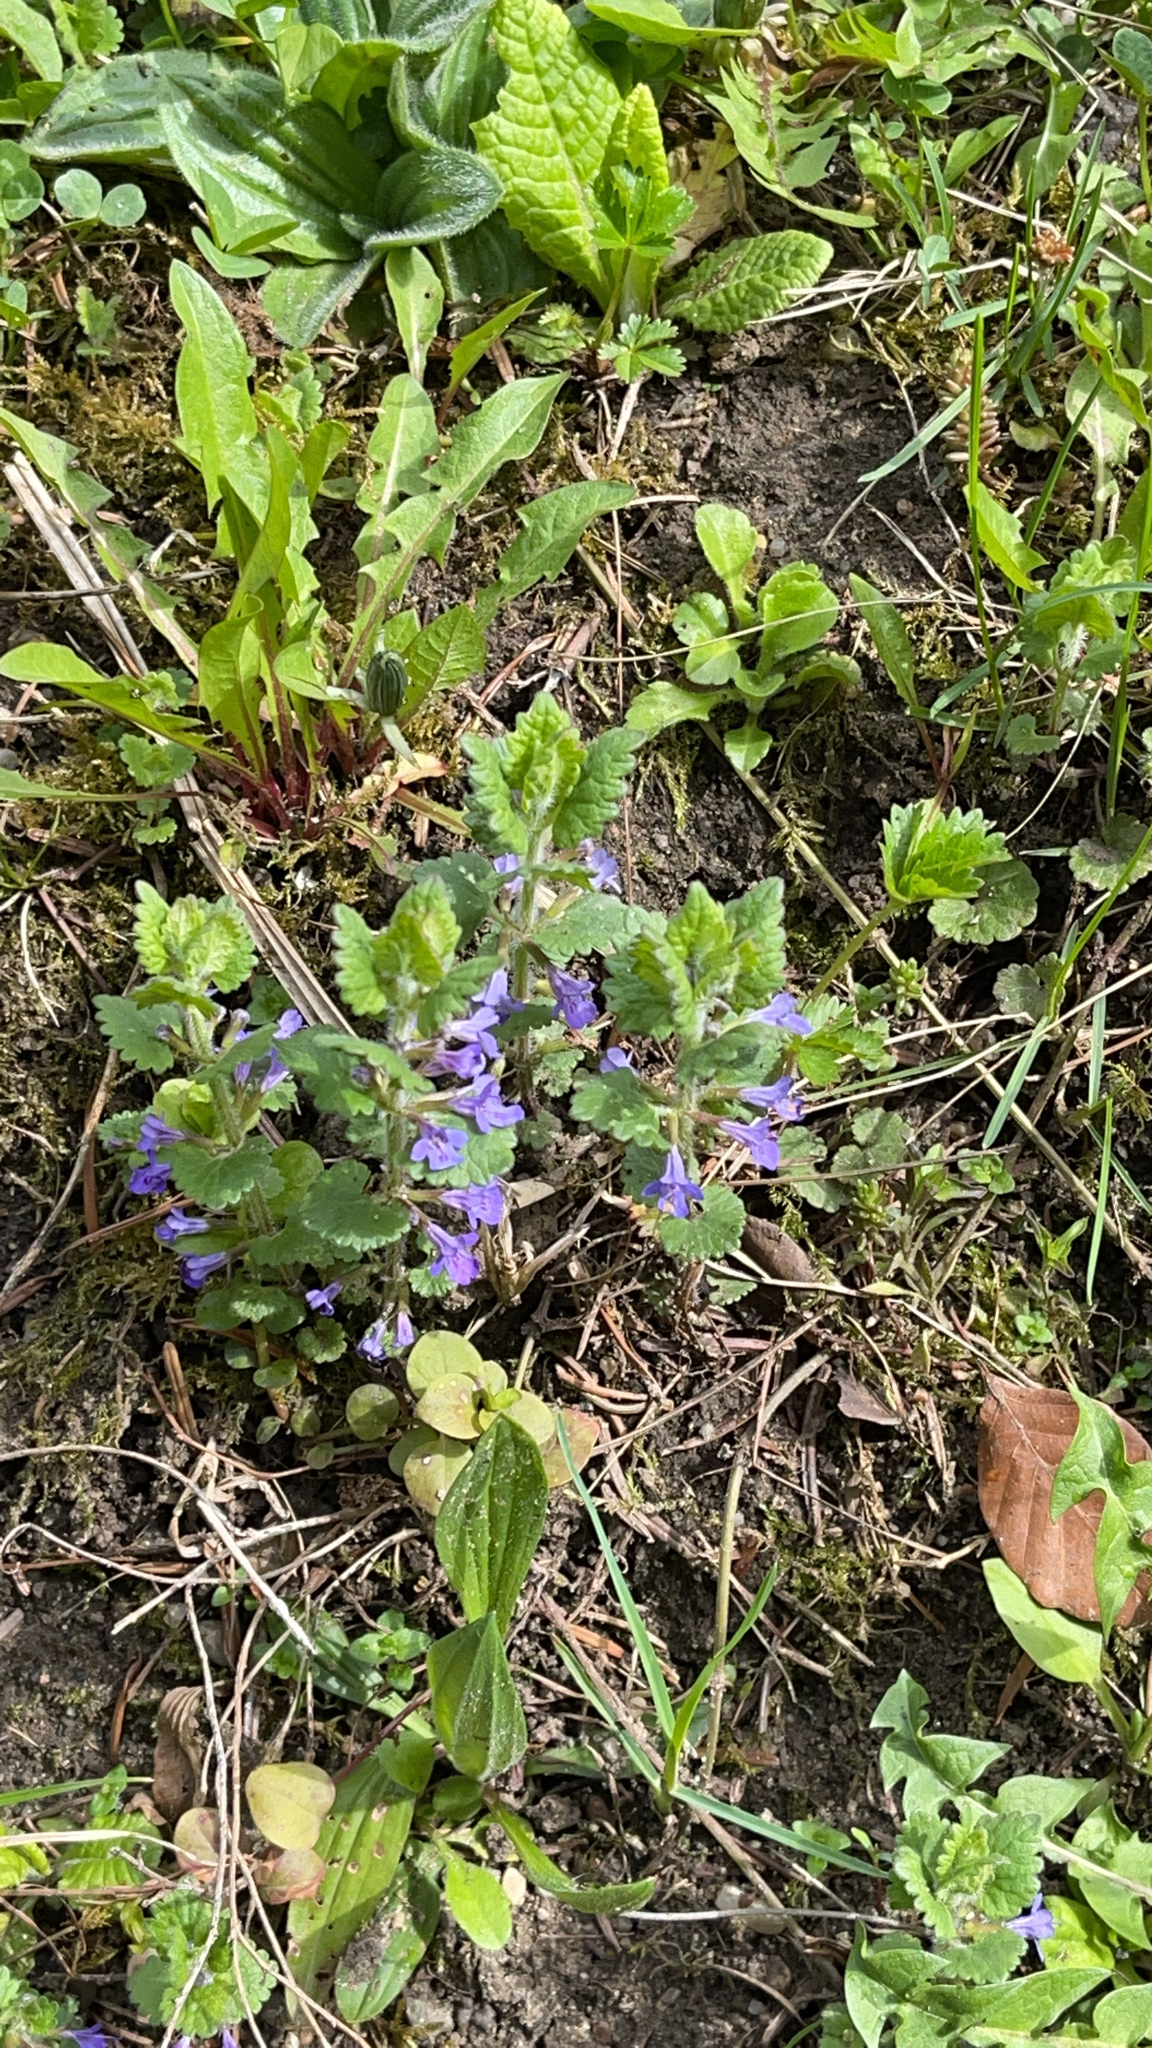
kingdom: Plantae
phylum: Tracheophyta
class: Magnoliopsida
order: Lamiales
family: Lamiaceae
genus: Glechoma
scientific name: Glechoma hederacea
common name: Ground ivy
